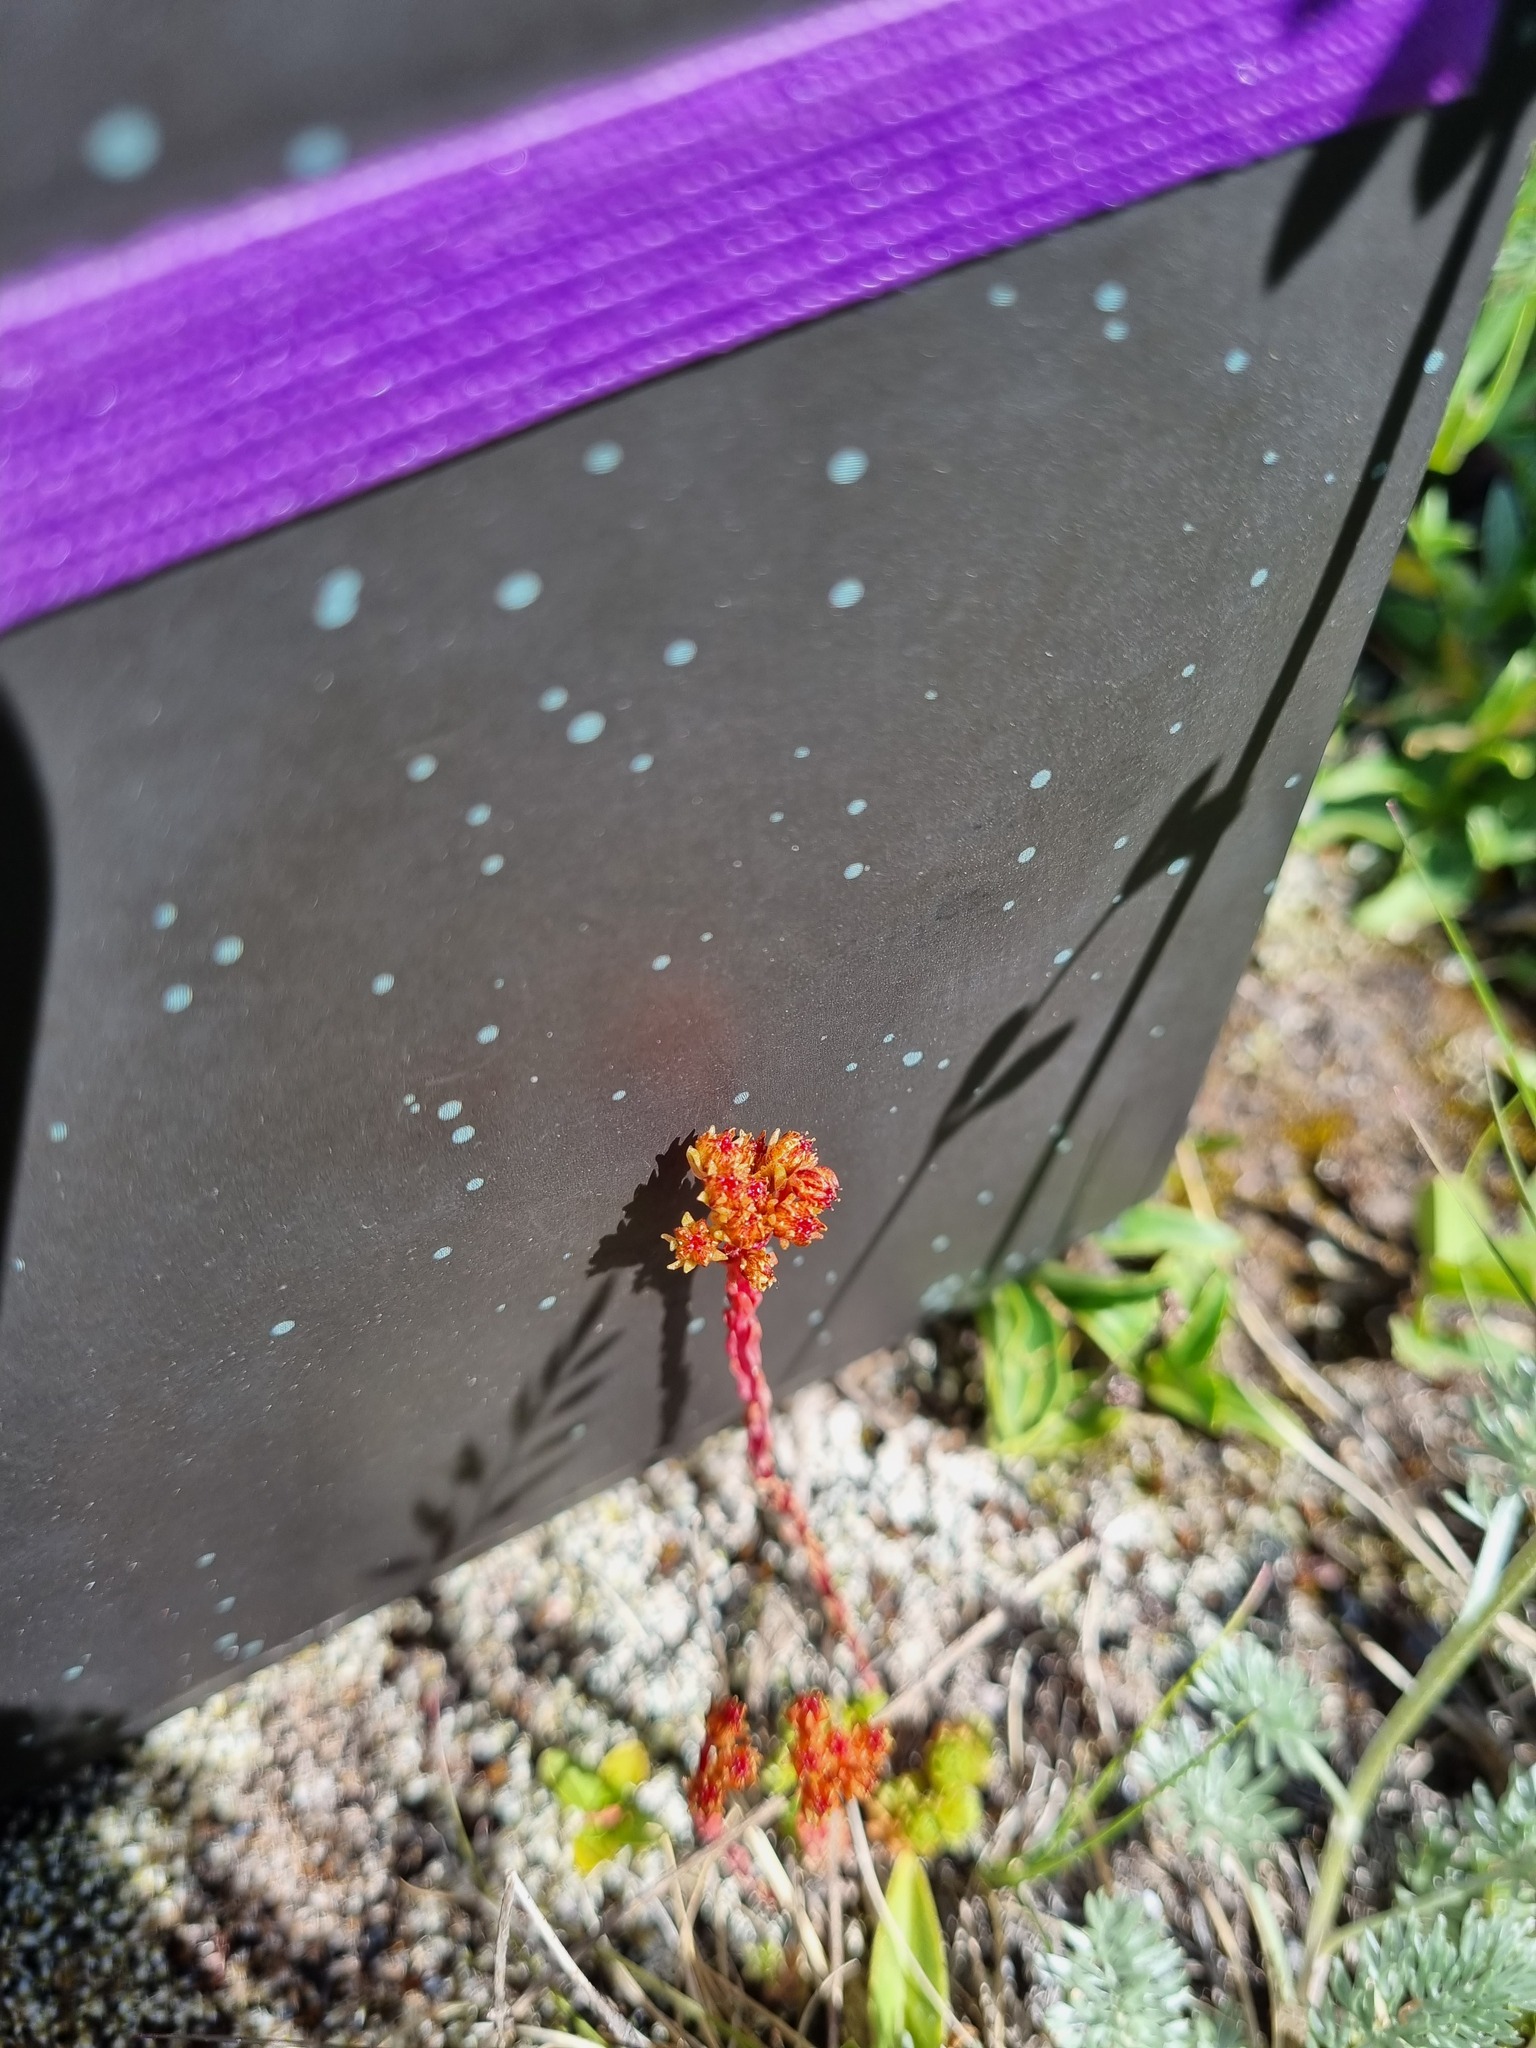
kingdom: Plantae
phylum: Tracheophyta
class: Magnoliopsida
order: Saxifragales
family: Crassulaceae
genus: Sedum
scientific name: Sedum tenellum
